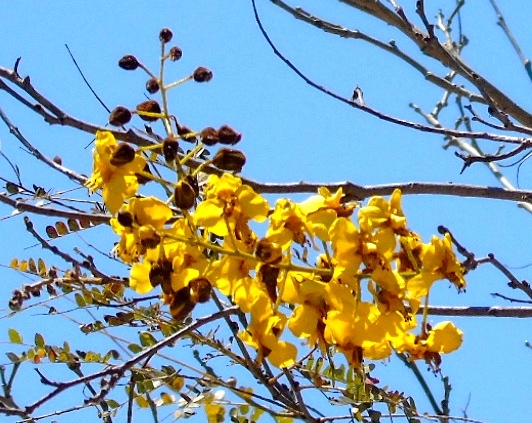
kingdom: Plantae
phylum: Tracheophyta
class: Magnoliopsida
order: Fabales
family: Fabaceae
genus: Cenostigma
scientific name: Cenostigma eriostachys
